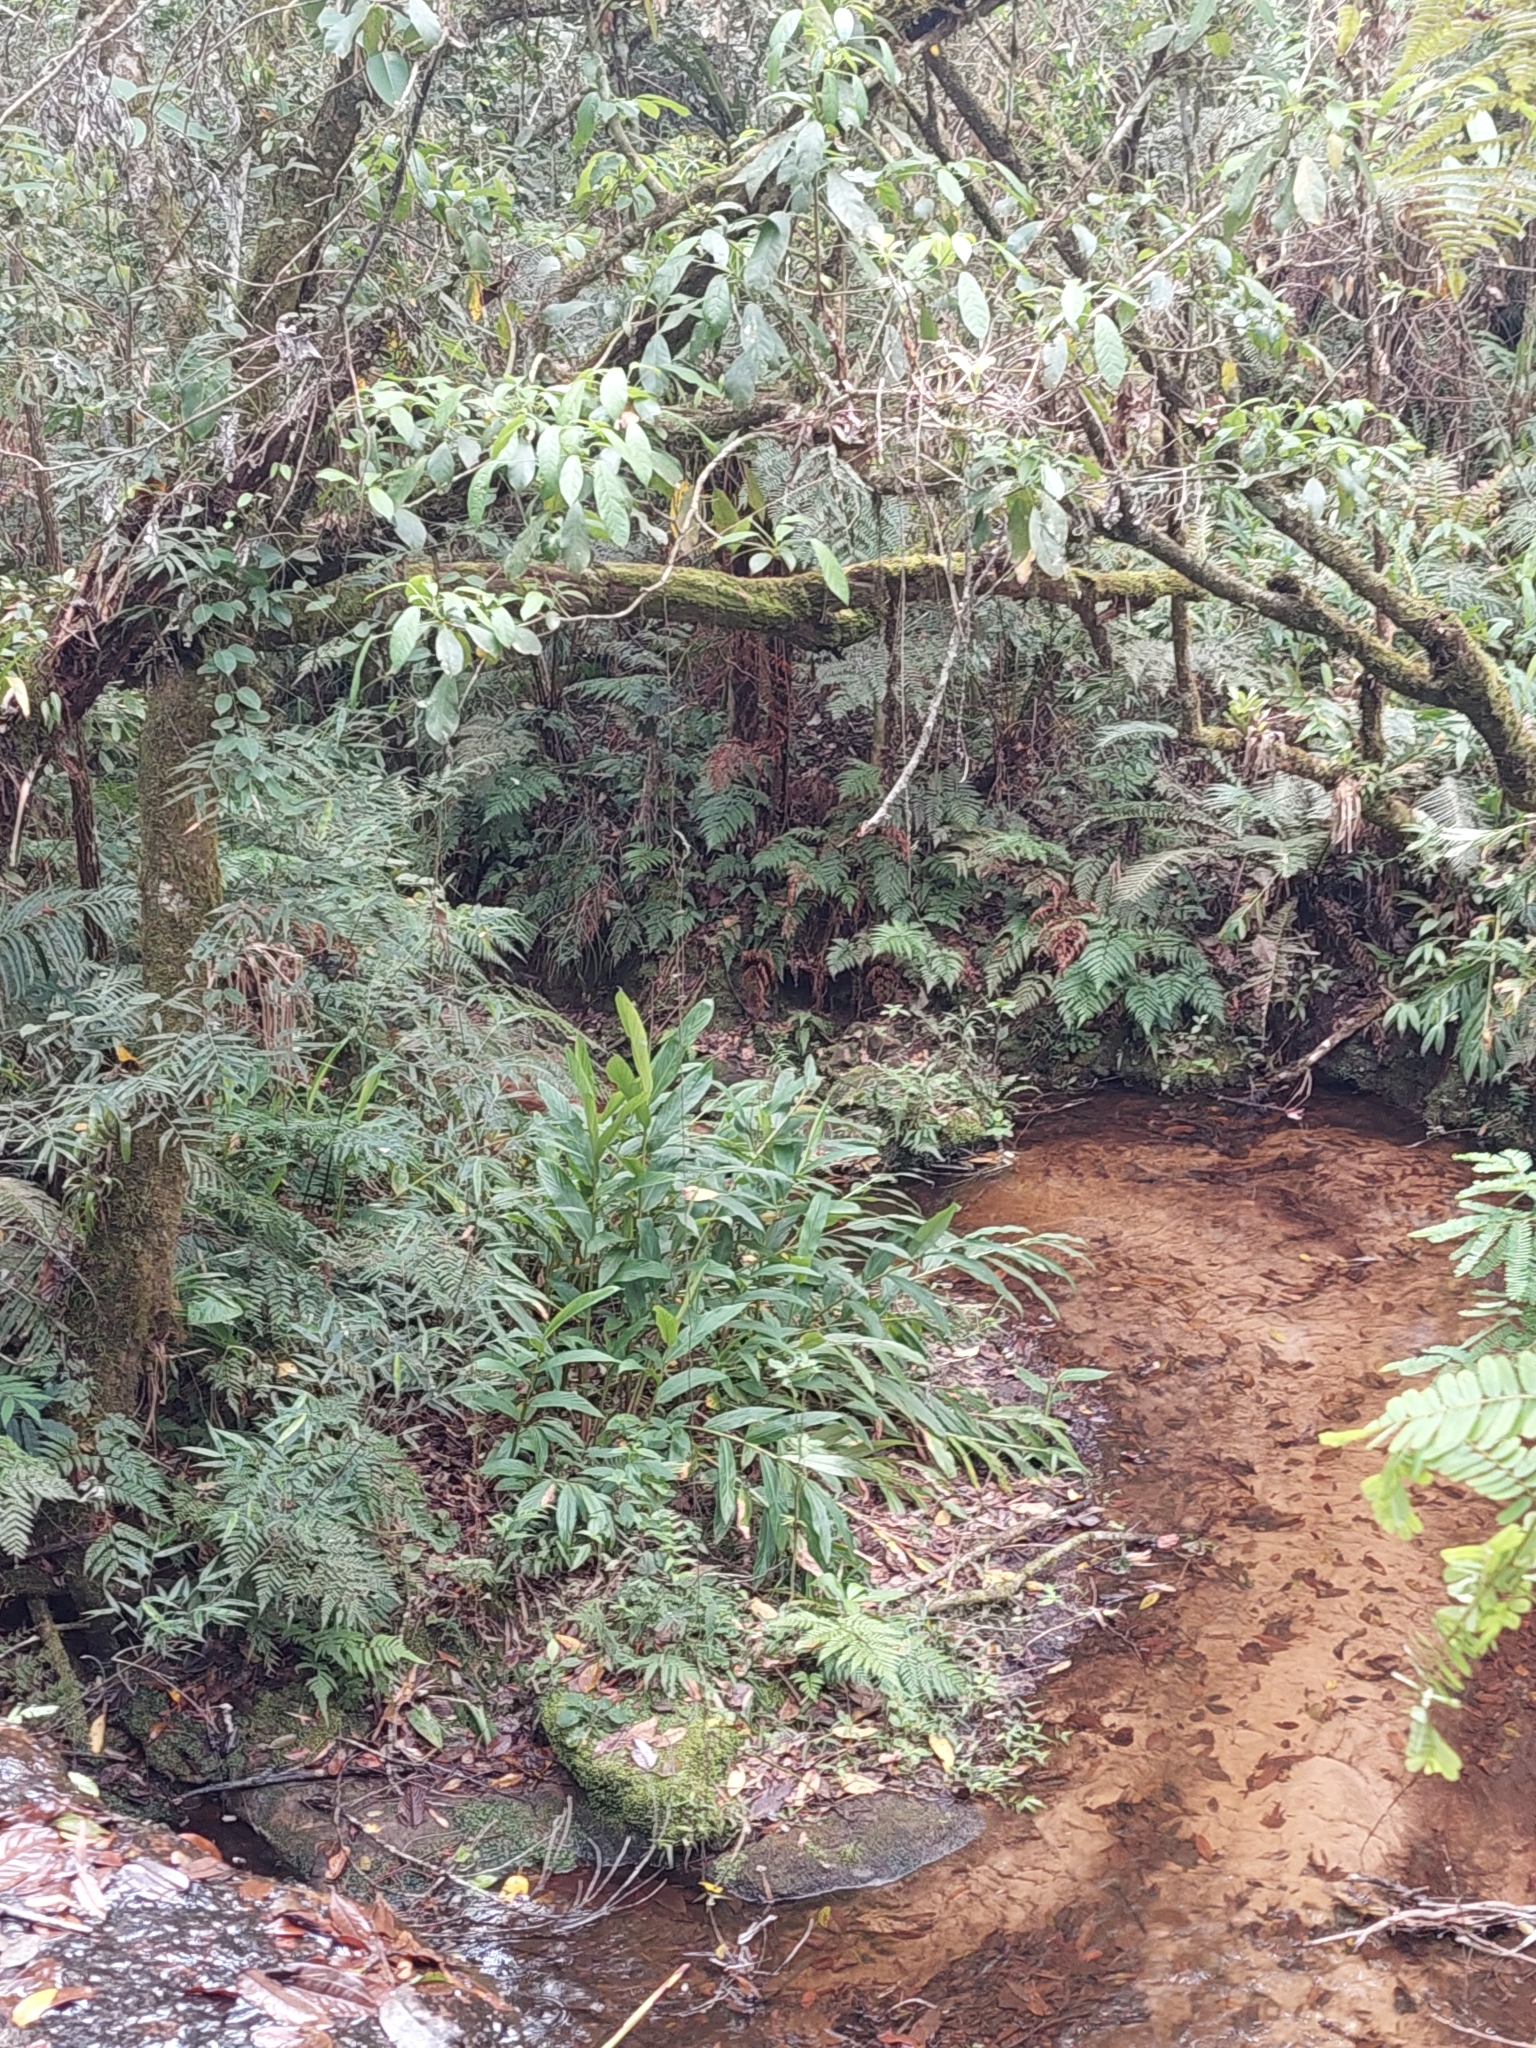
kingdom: Plantae
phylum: Tracheophyta
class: Liliopsida
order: Zingiberales
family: Zingiberaceae
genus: Hedychium
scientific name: Hedychium coronarium
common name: White garland-lily
